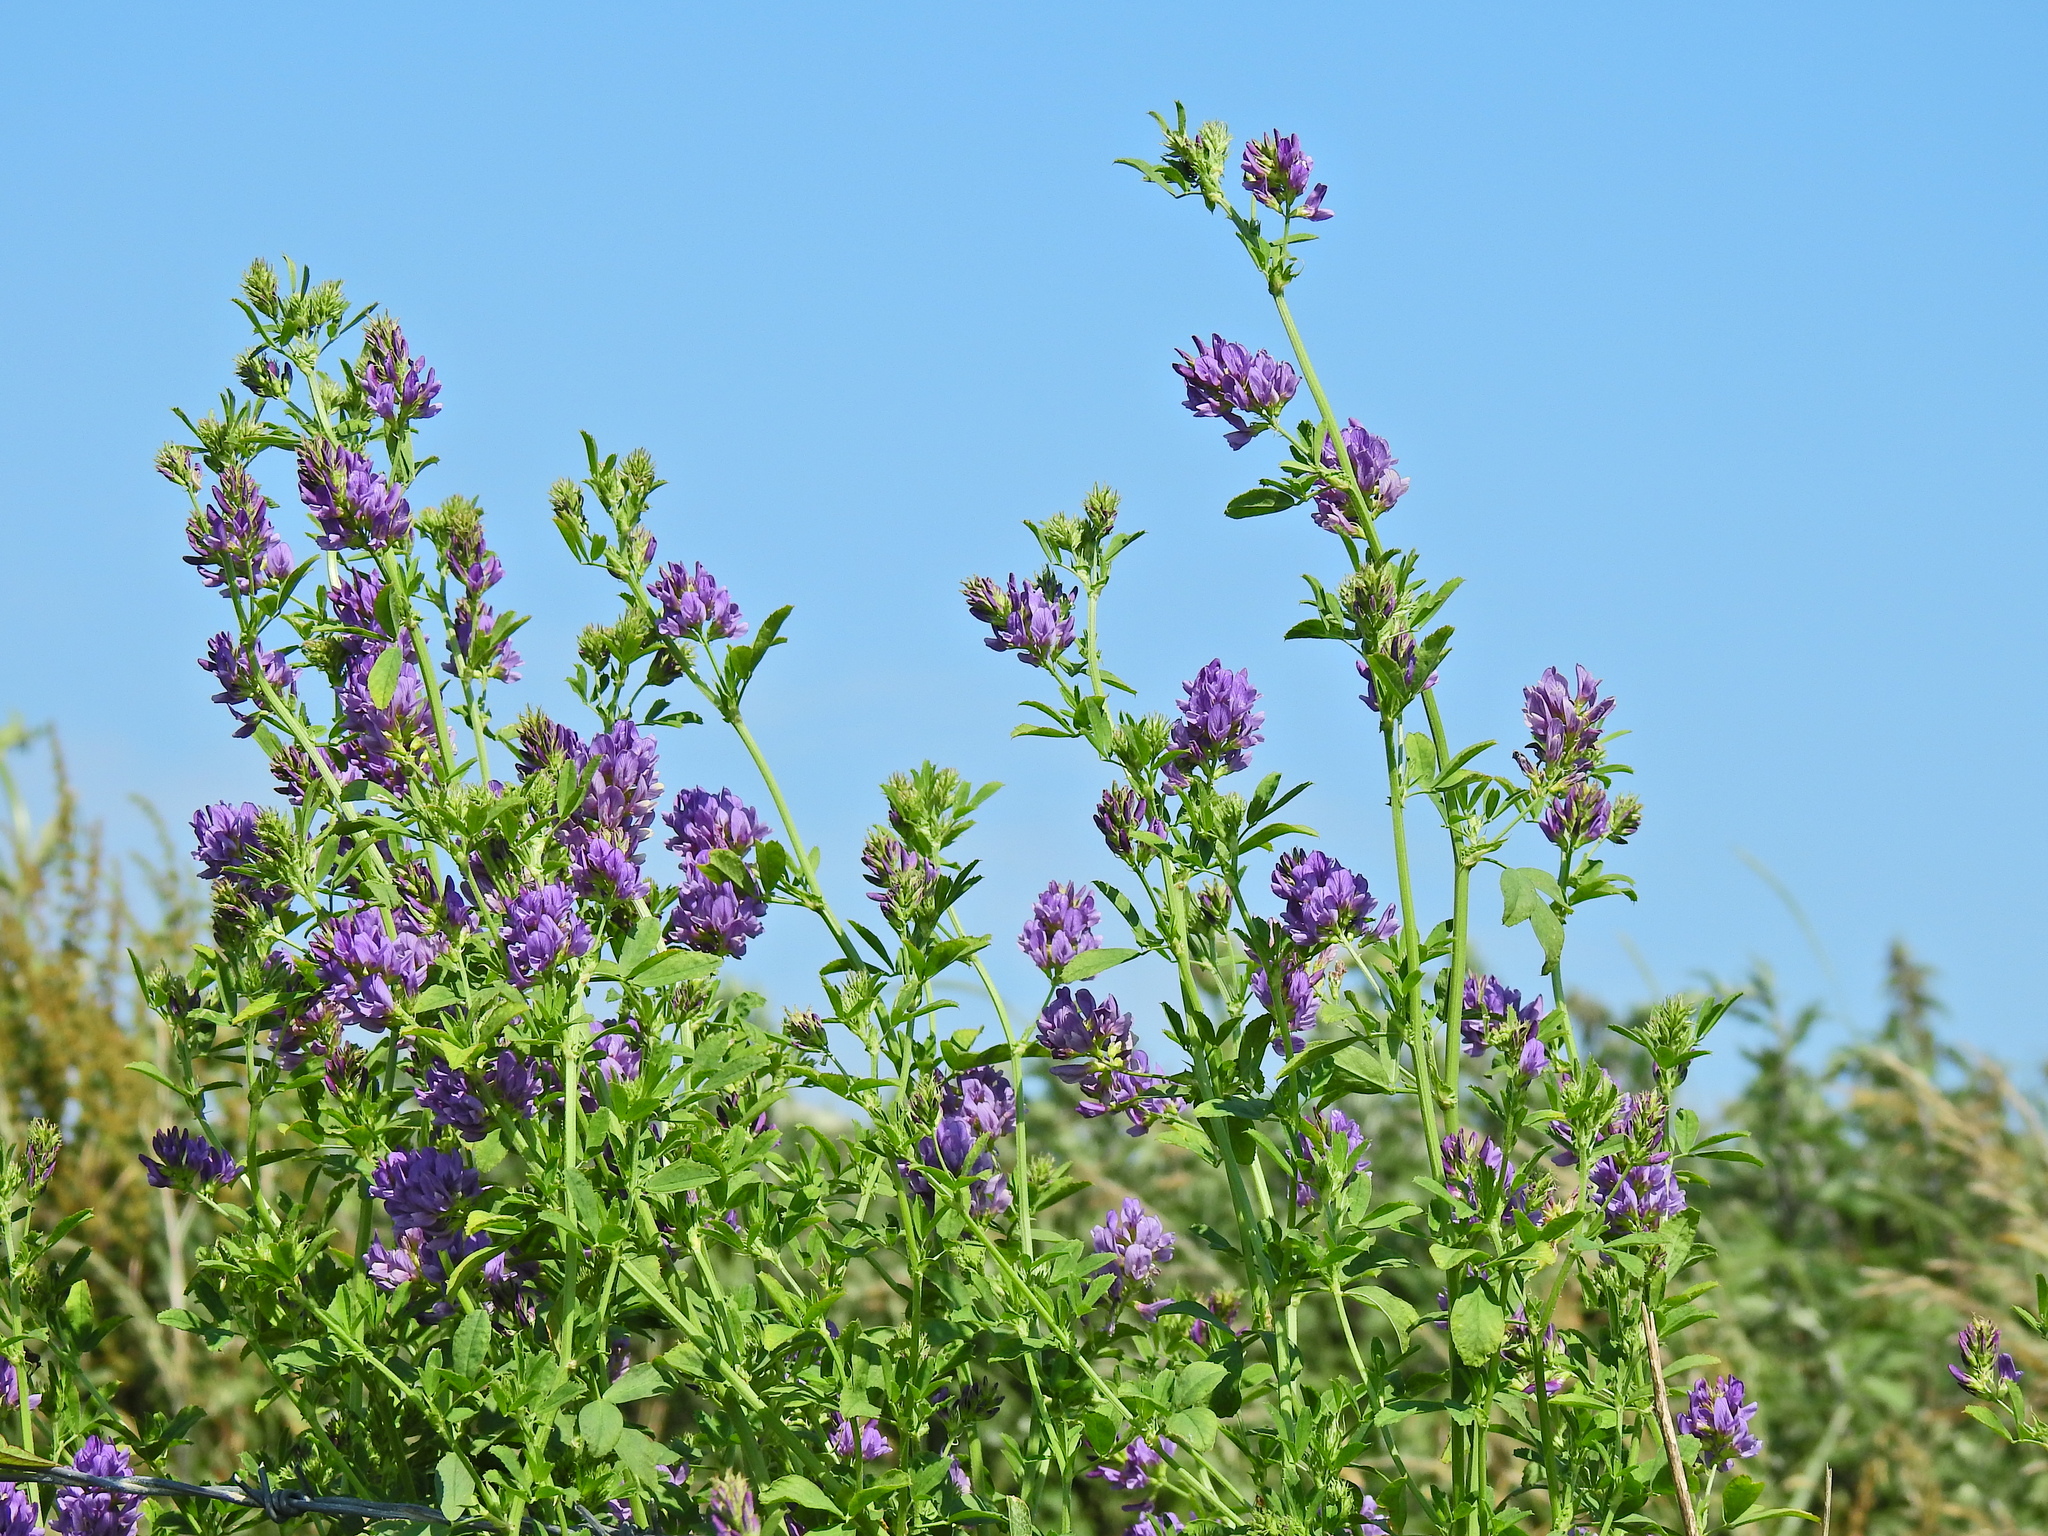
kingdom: Plantae
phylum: Tracheophyta
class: Magnoliopsida
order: Fabales
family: Fabaceae
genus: Medicago
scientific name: Medicago sativa
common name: Alfalfa
